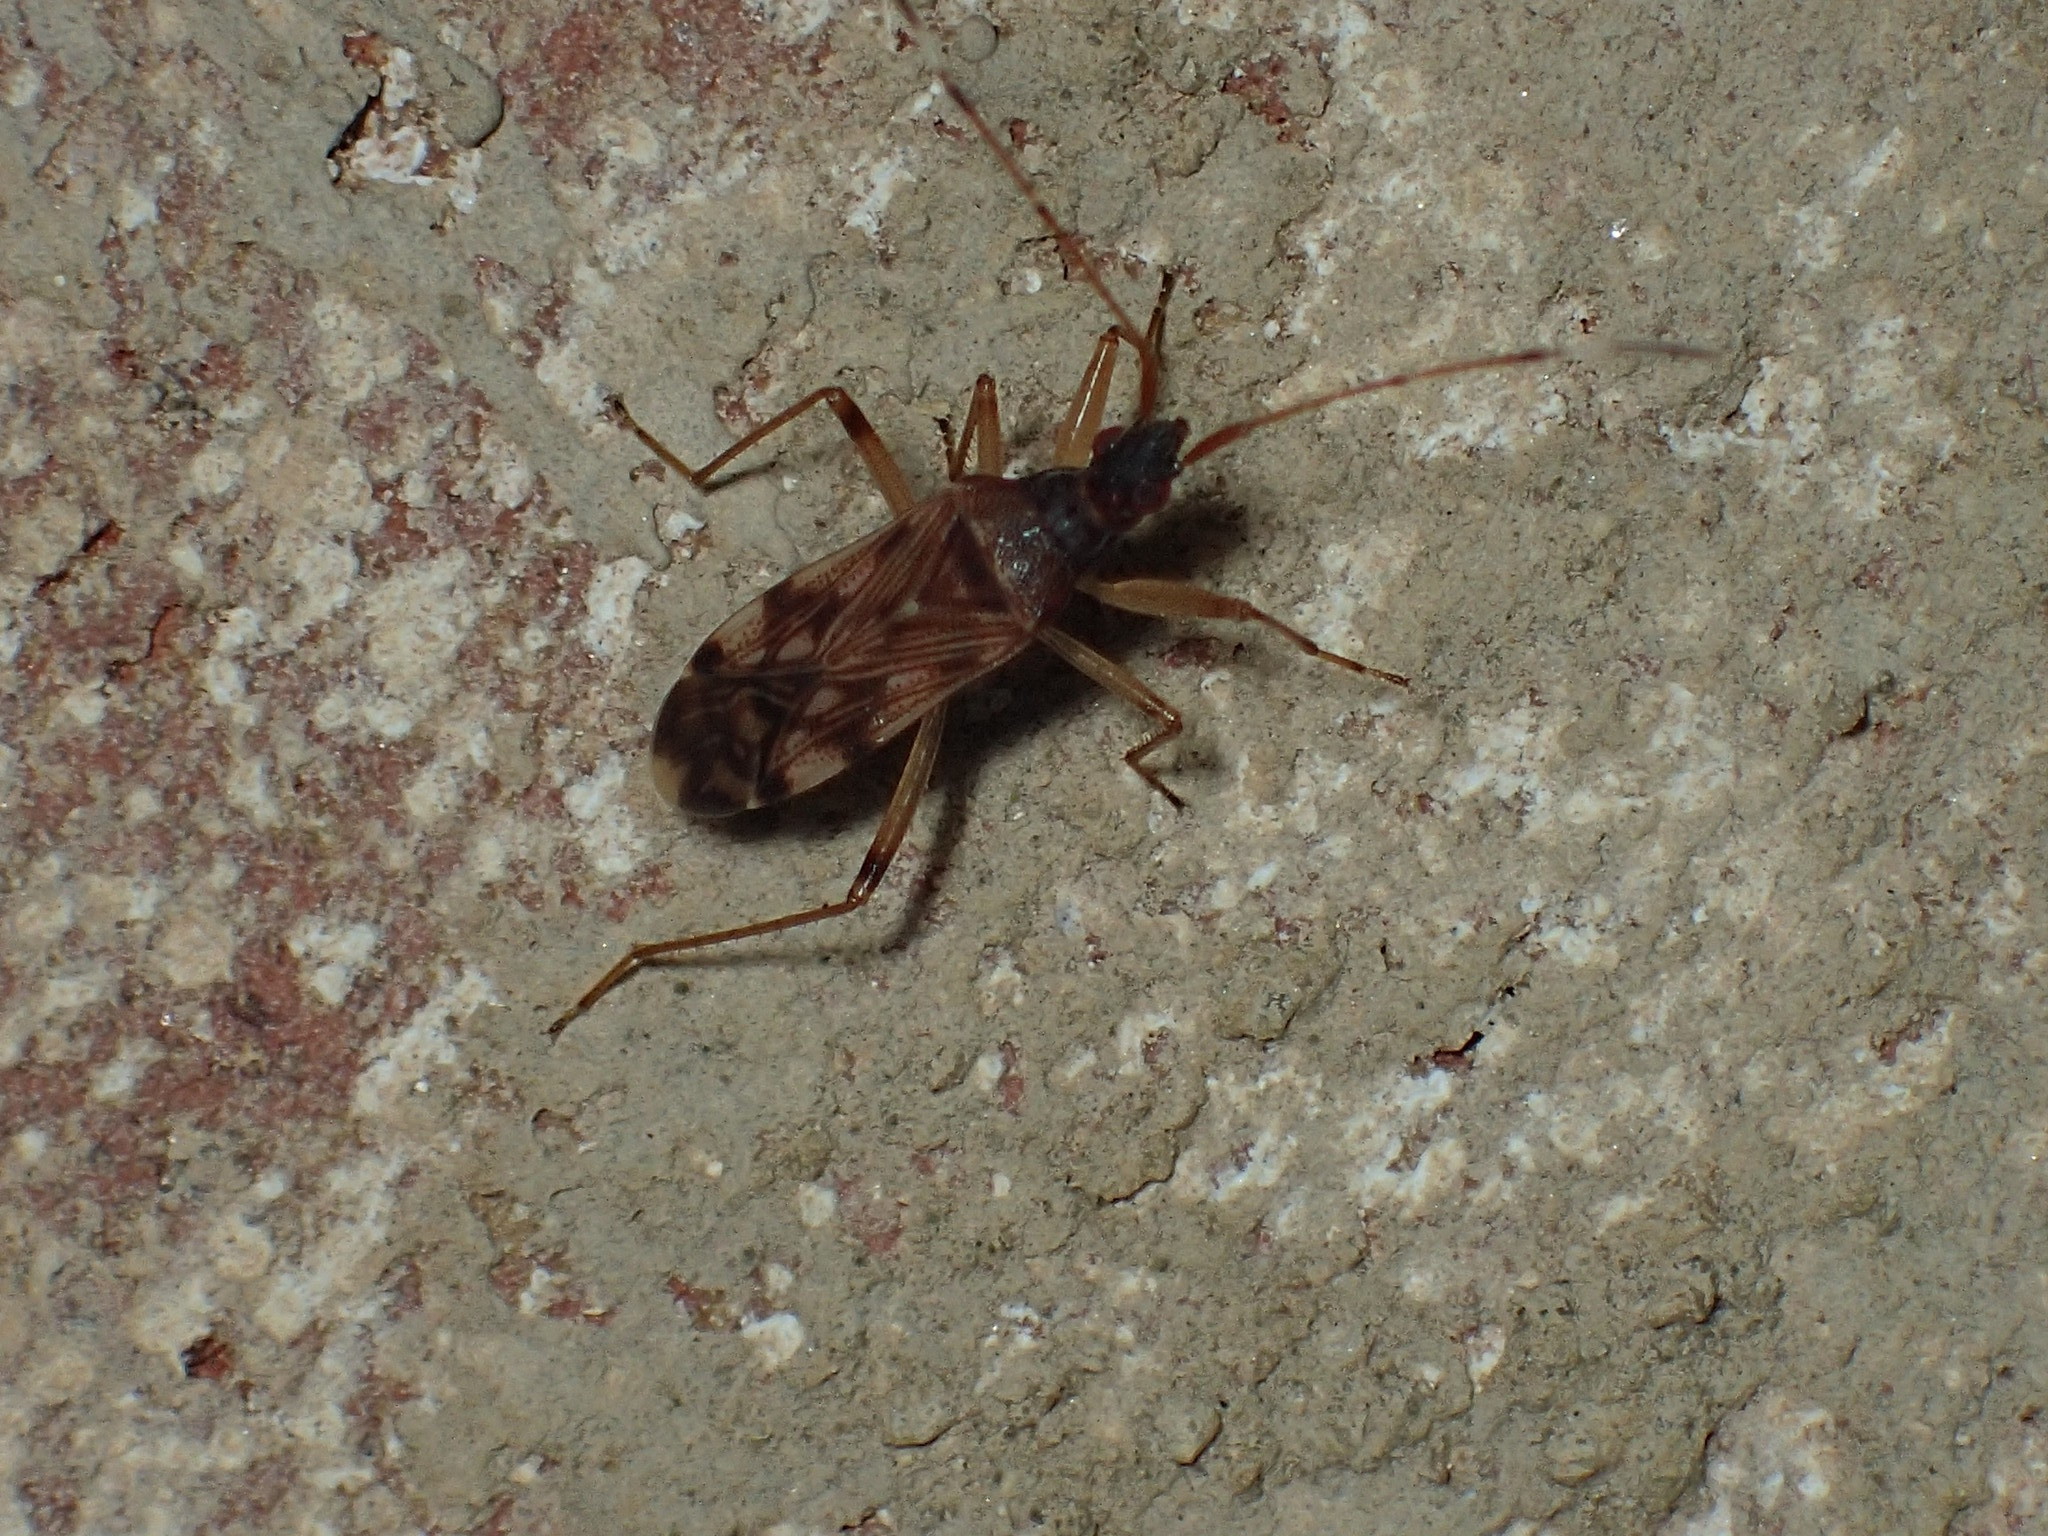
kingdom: Animalia
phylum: Arthropoda
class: Insecta
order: Hemiptera
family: Rhyparochromidae
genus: Ozophora
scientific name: Ozophora picturata
